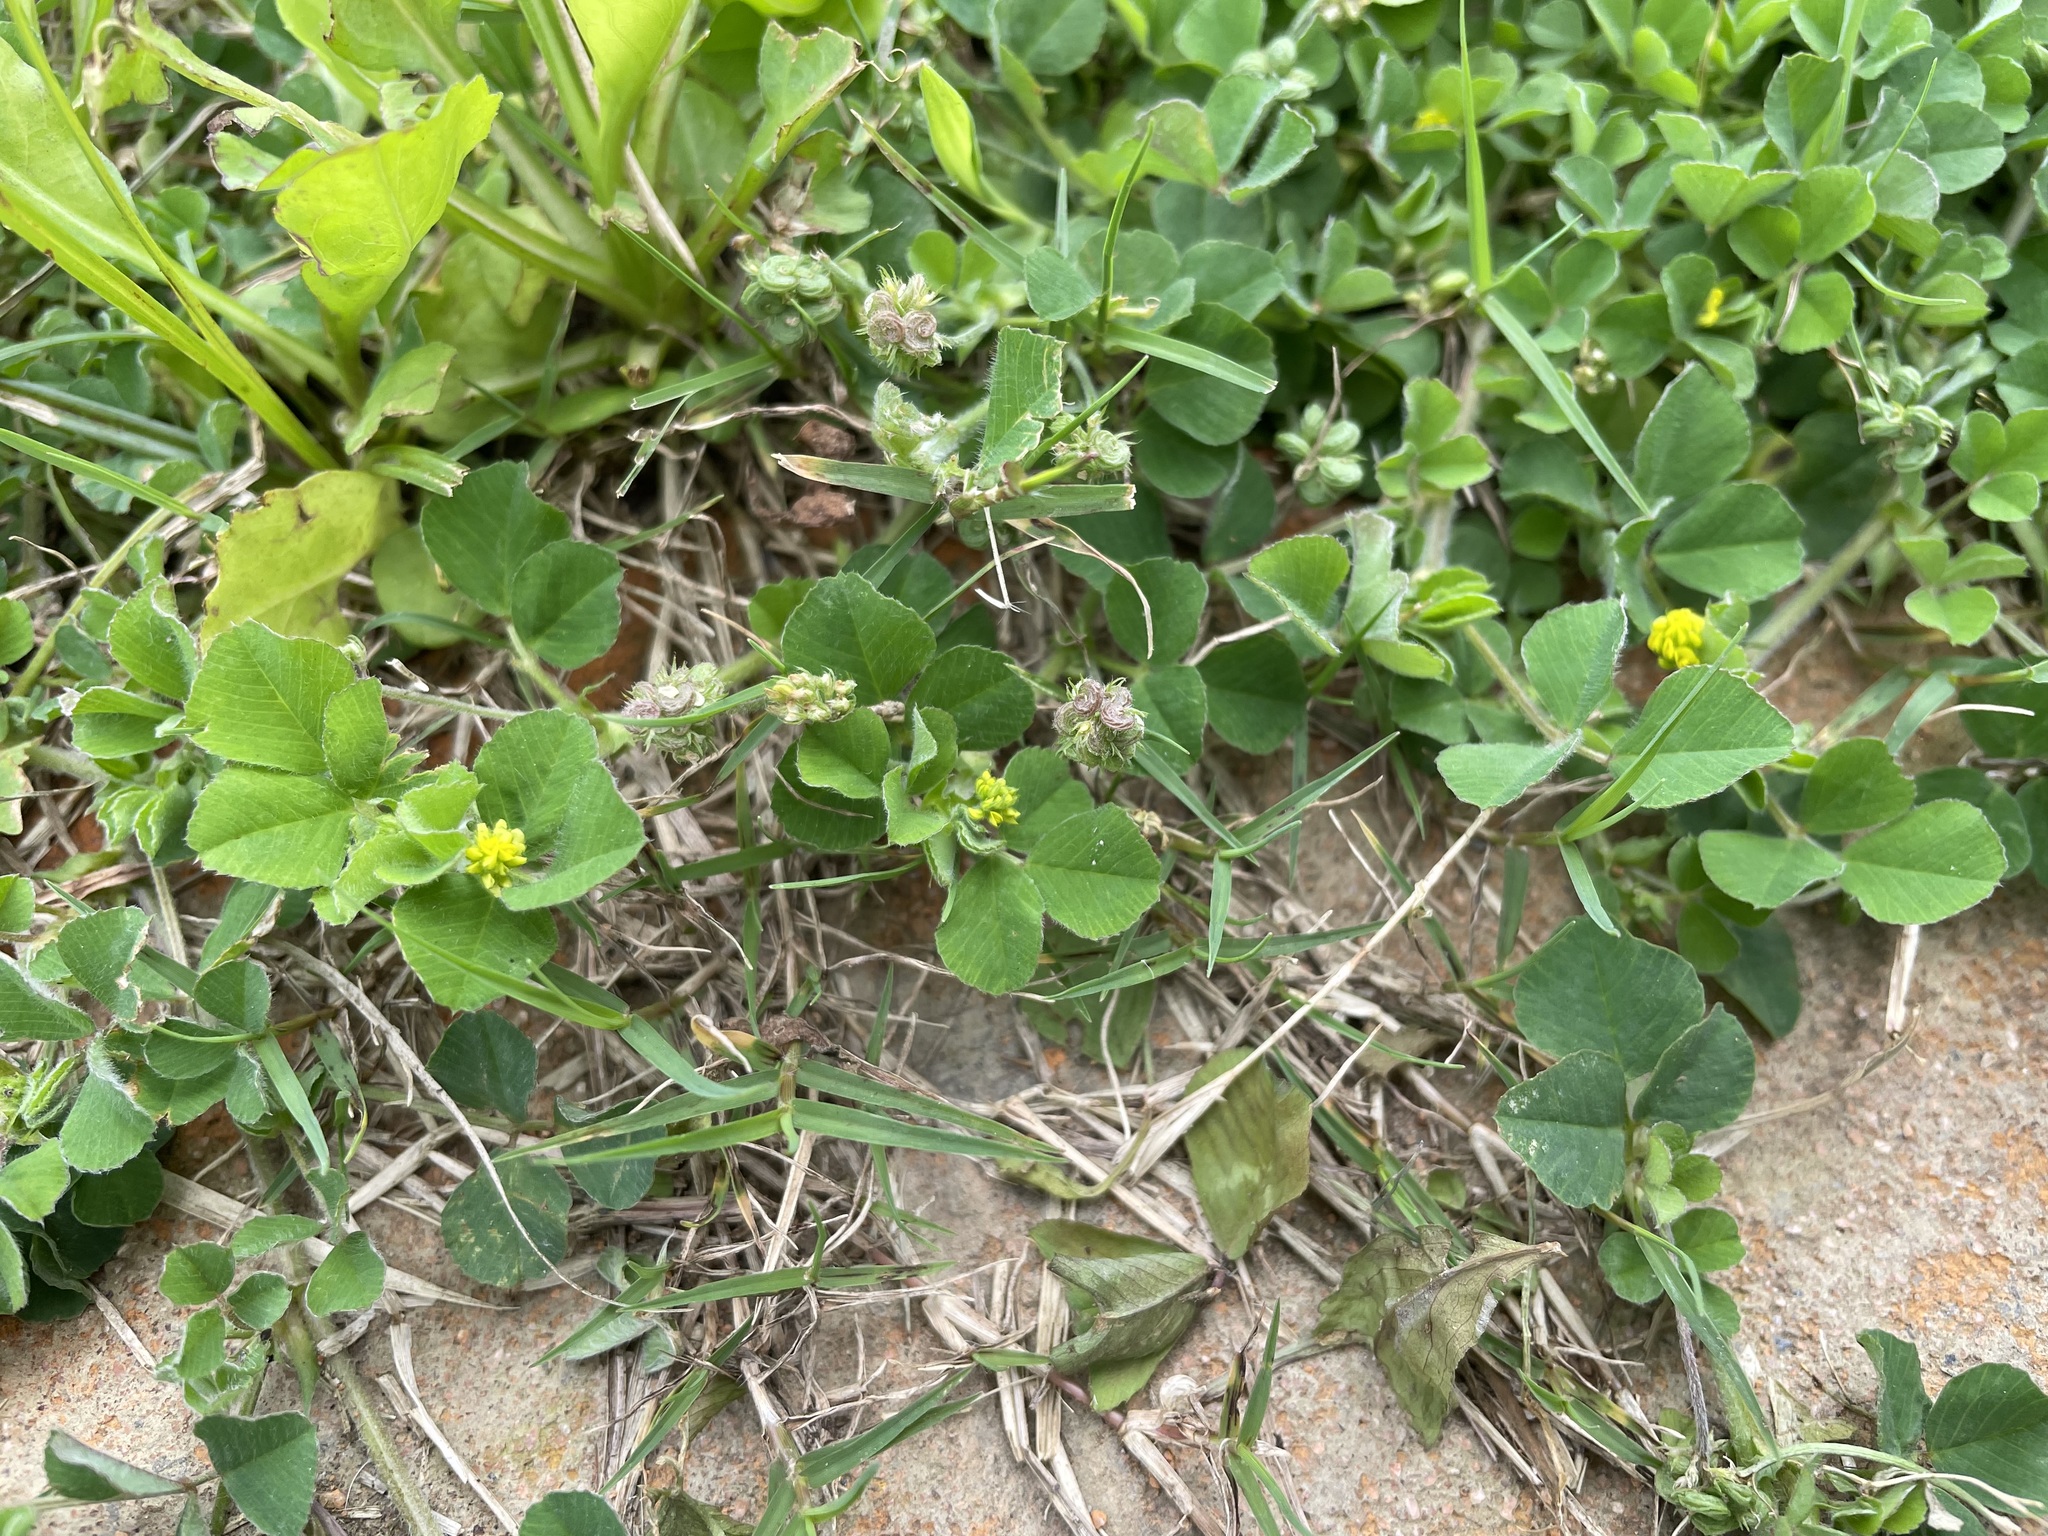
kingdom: Plantae
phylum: Tracheophyta
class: Magnoliopsida
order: Fabales
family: Fabaceae
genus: Medicago
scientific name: Medicago lupulina
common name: Black medick
